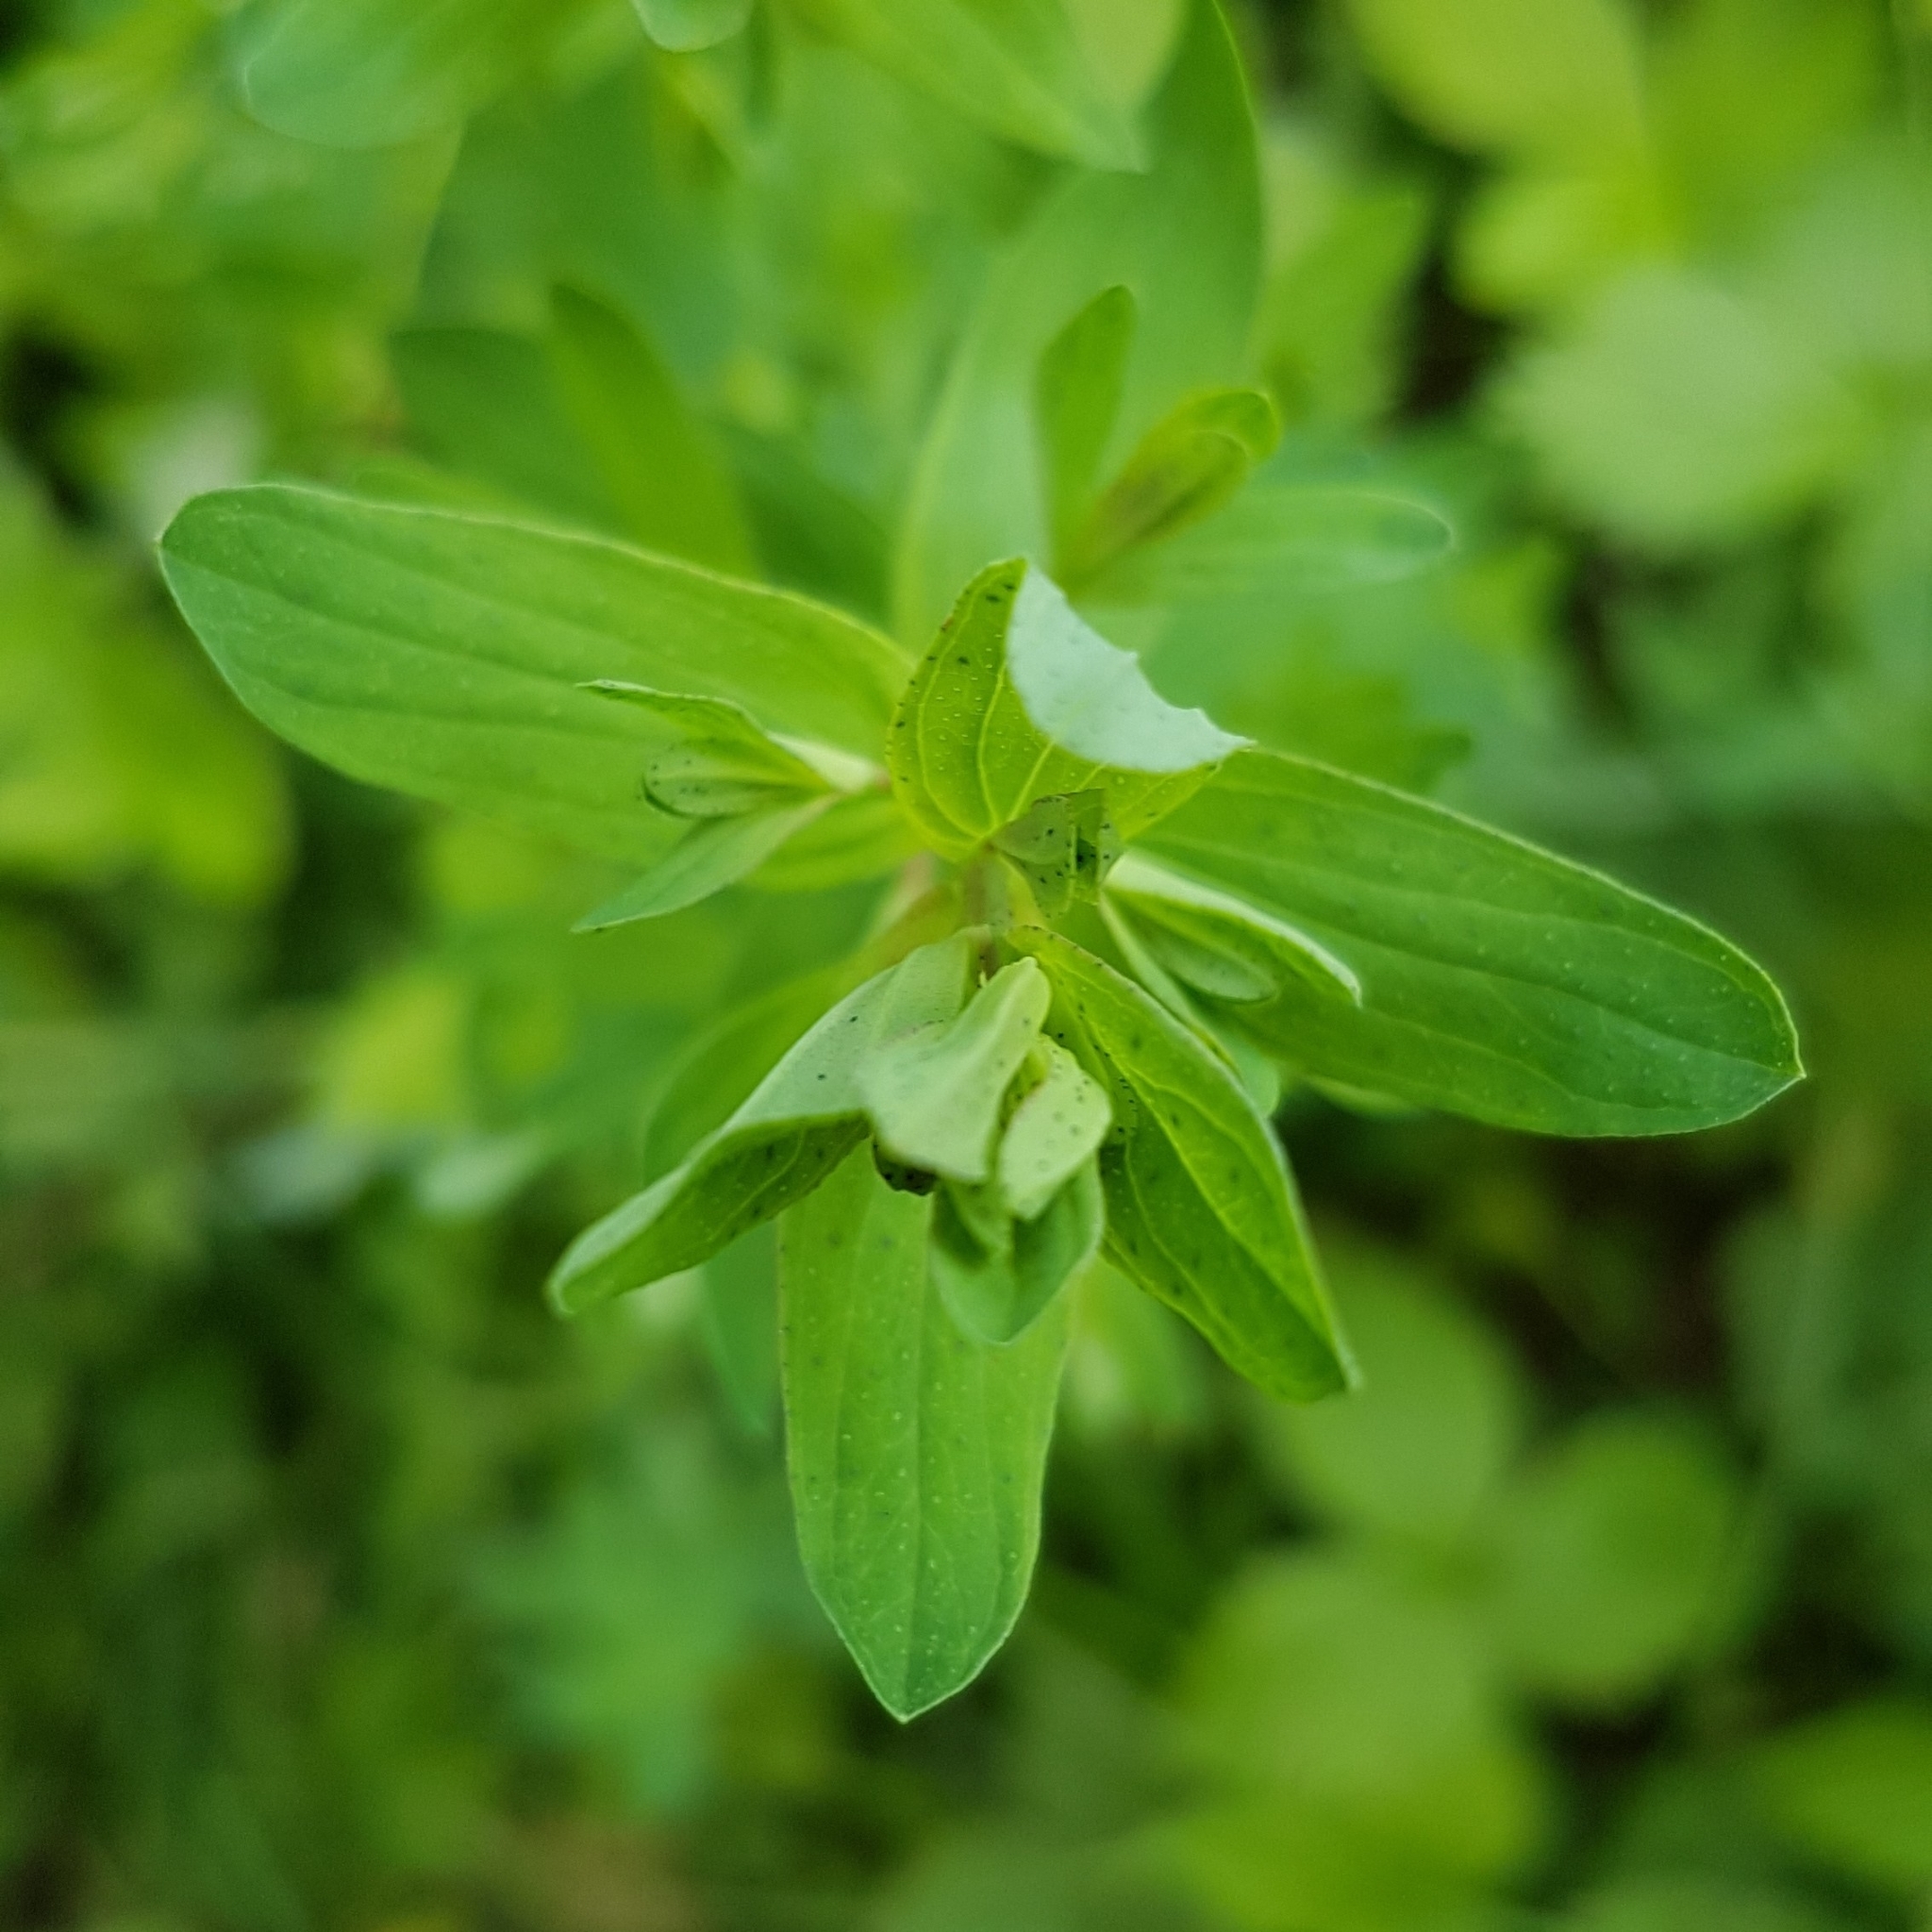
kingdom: Plantae
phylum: Tracheophyta
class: Magnoliopsida
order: Malpighiales
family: Hypericaceae
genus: Hypericum
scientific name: Hypericum perforatum
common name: Common st. johnswort
